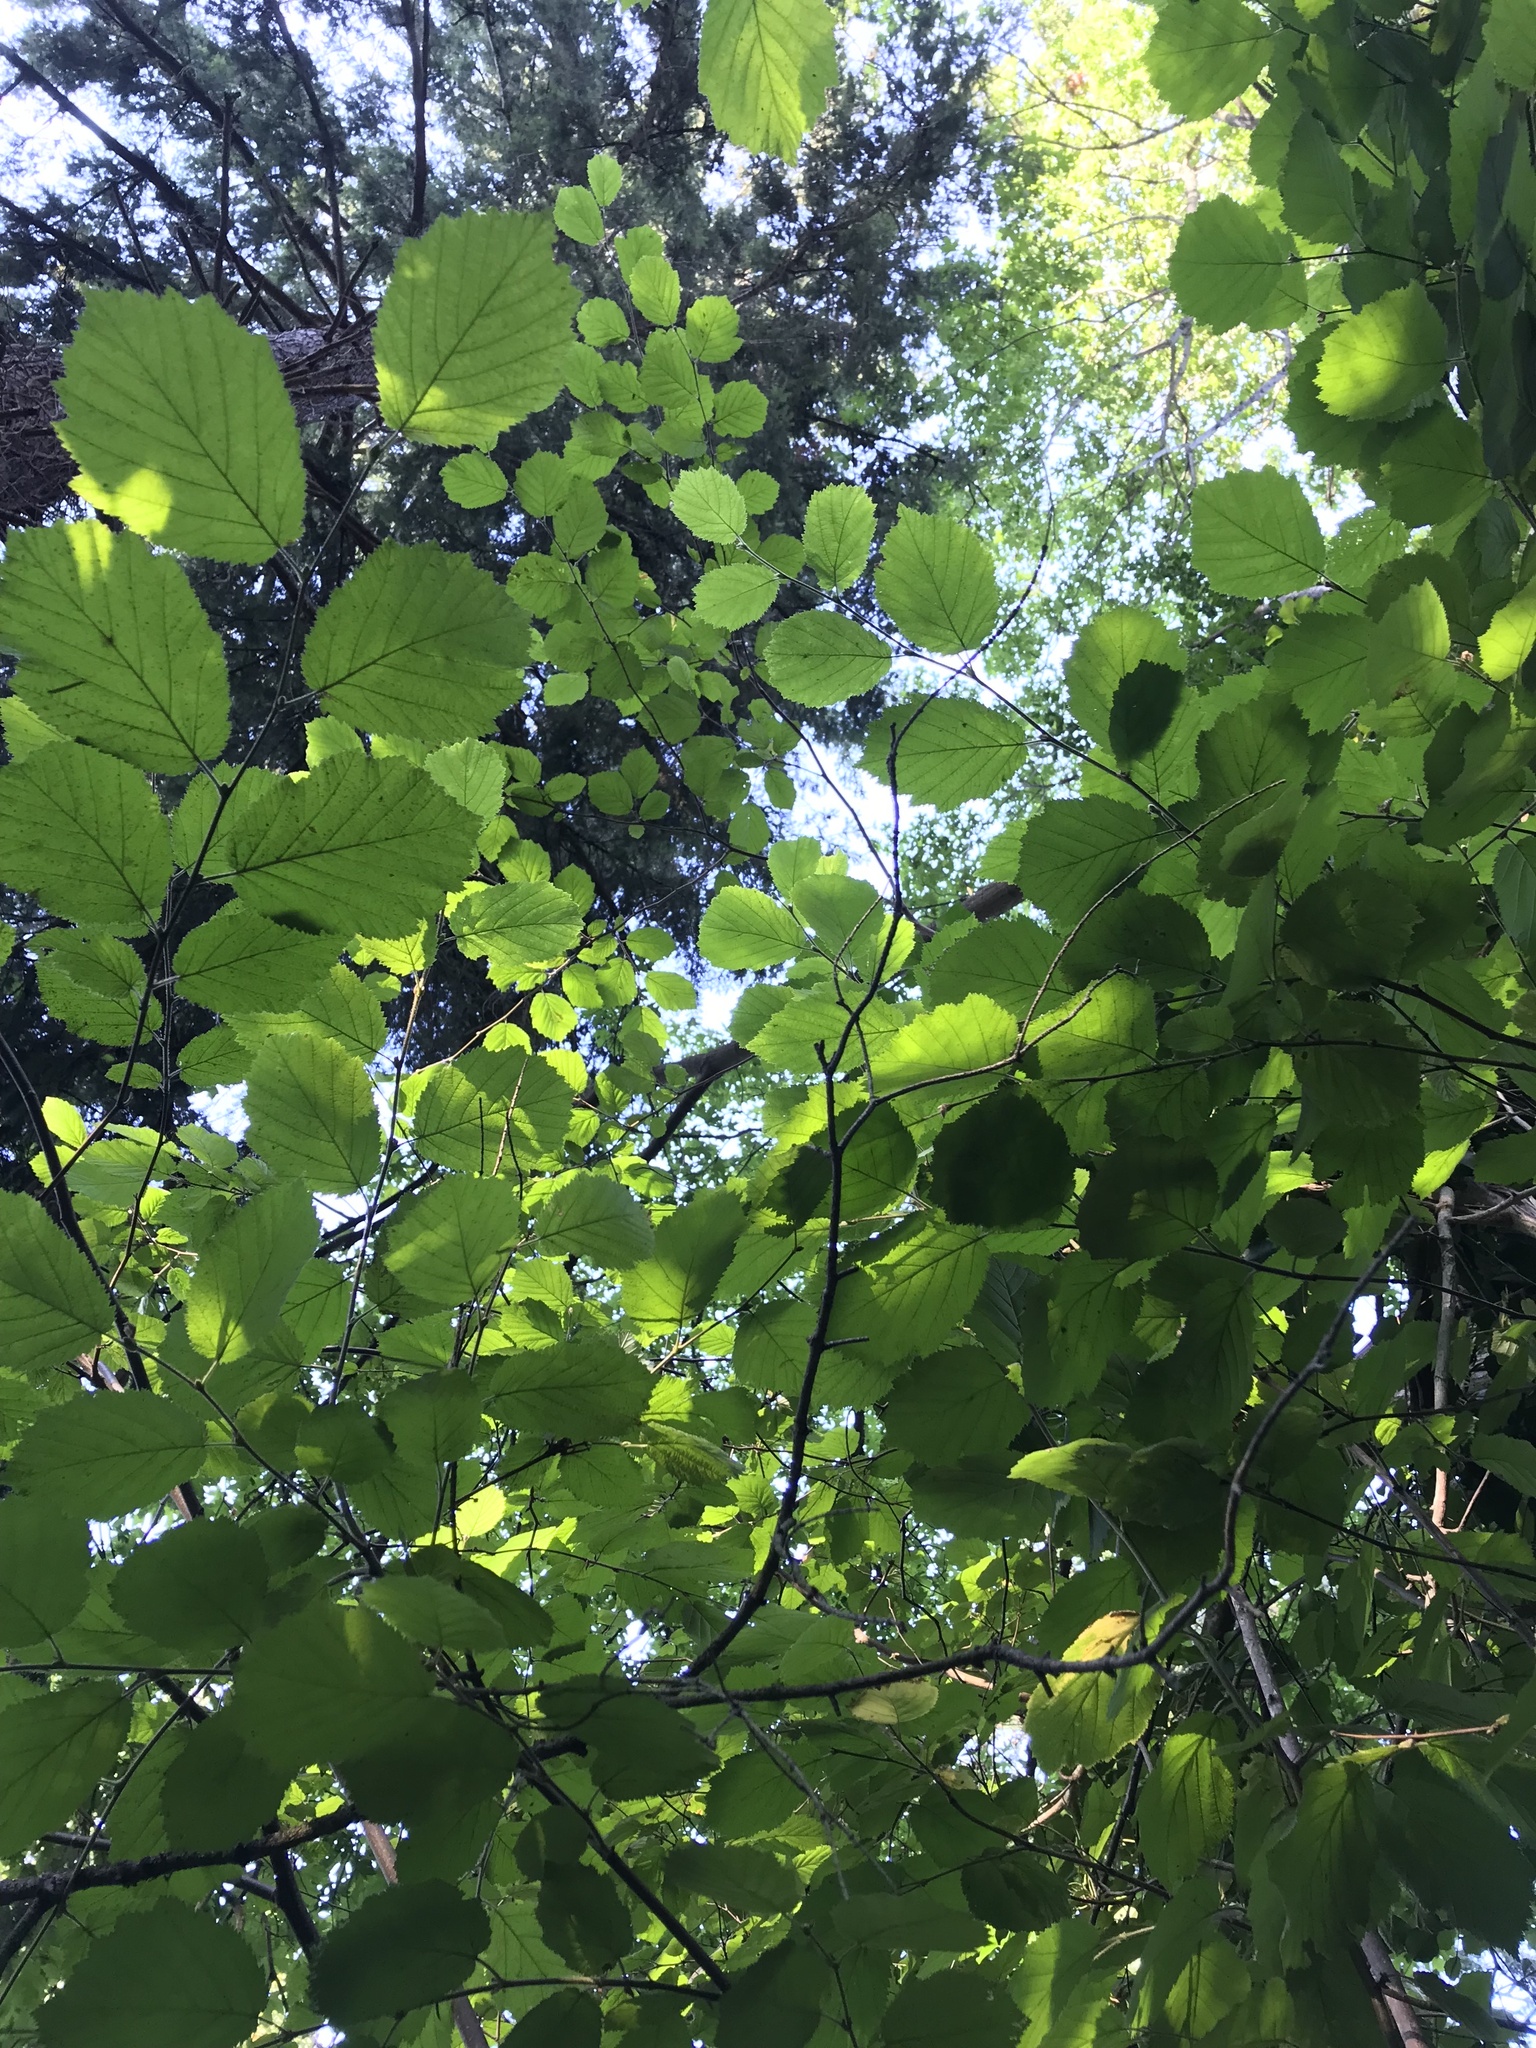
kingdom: Plantae
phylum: Tracheophyta
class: Magnoliopsida
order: Fagales
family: Betulaceae
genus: Corylus
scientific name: Corylus cornuta
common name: Beaked hazel
